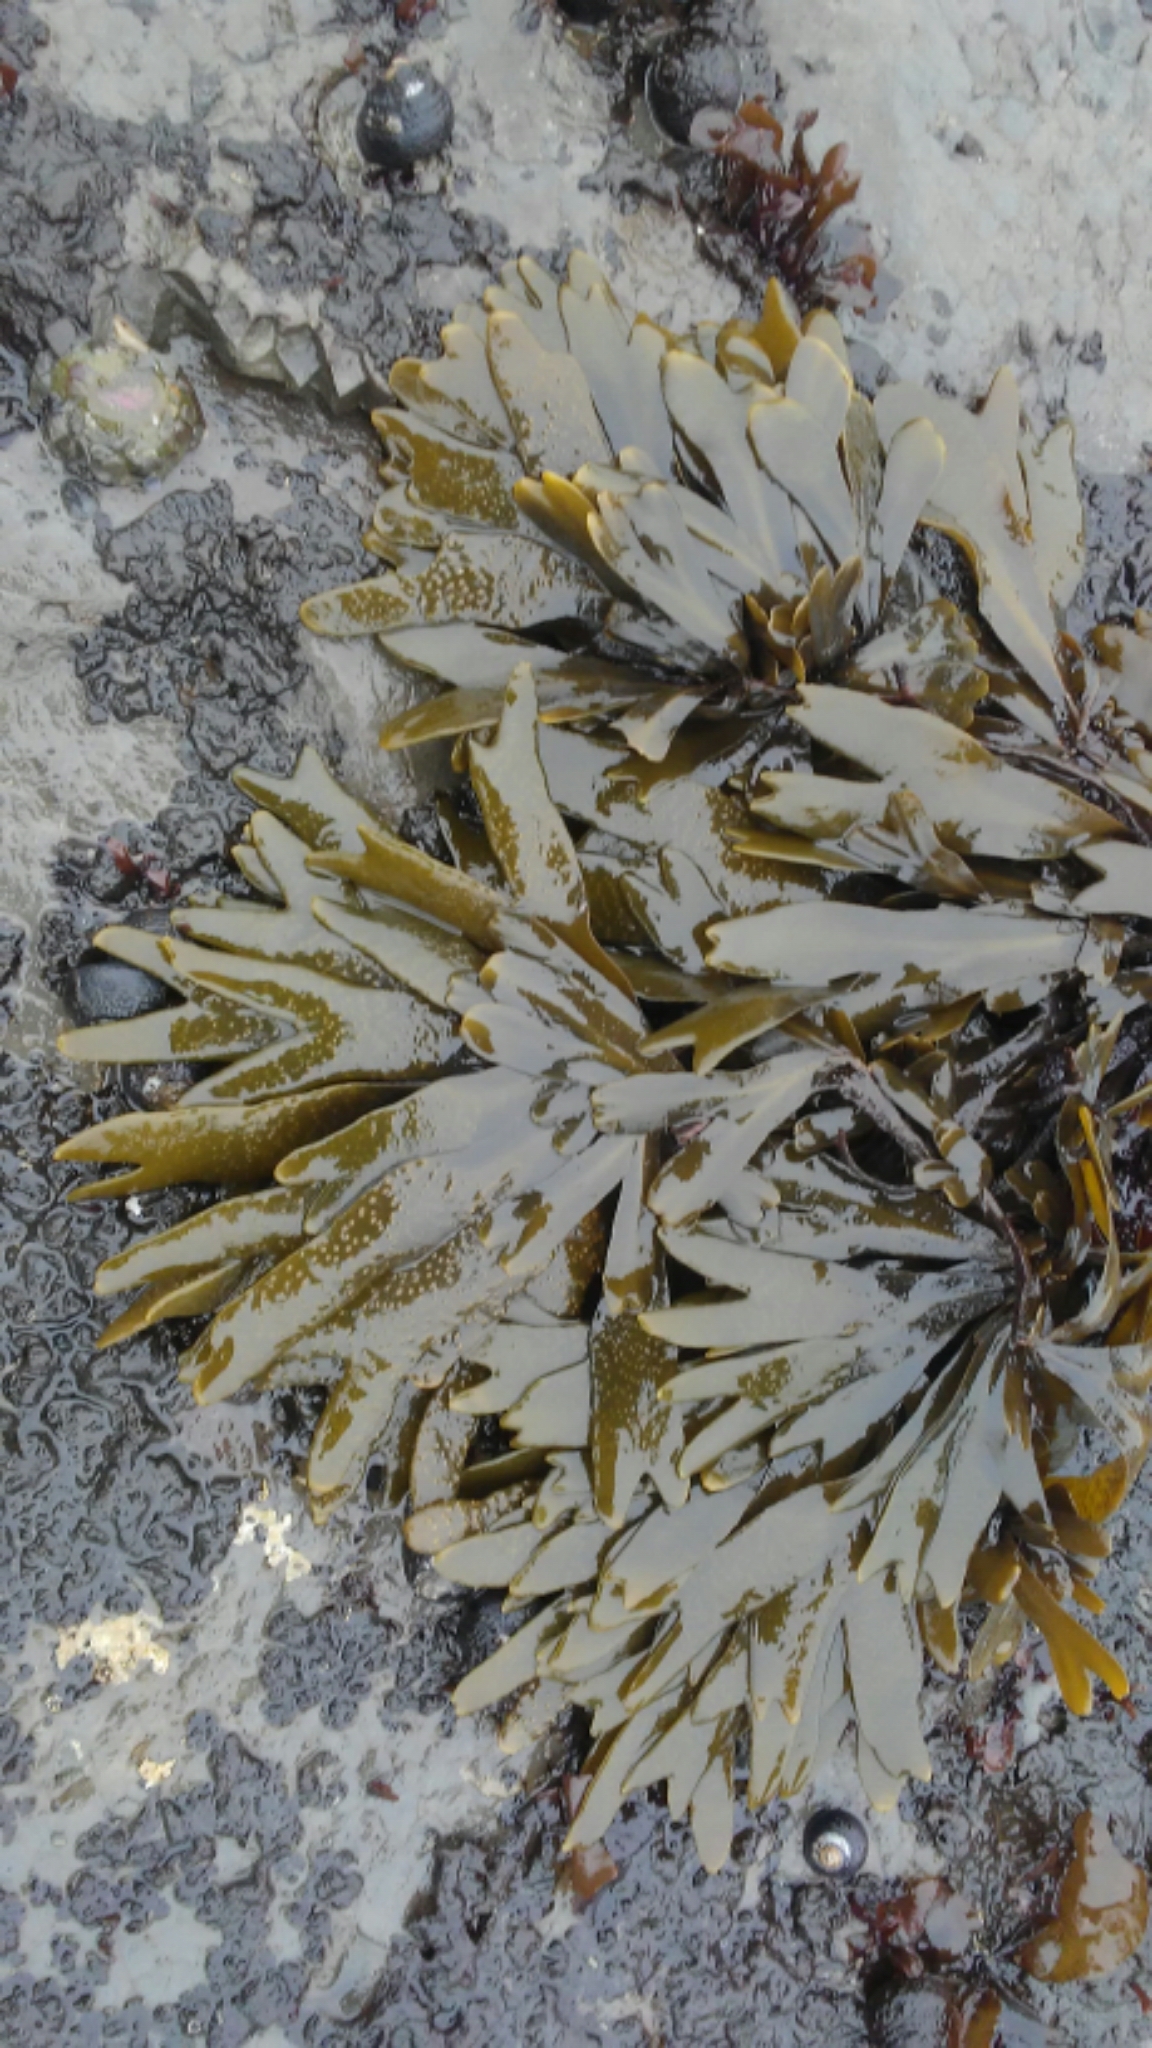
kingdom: Chromista
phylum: Ochrophyta
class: Phaeophyceae
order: Fucales
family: Fucaceae
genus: Fucus
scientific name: Fucus distichus
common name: Rockweed
